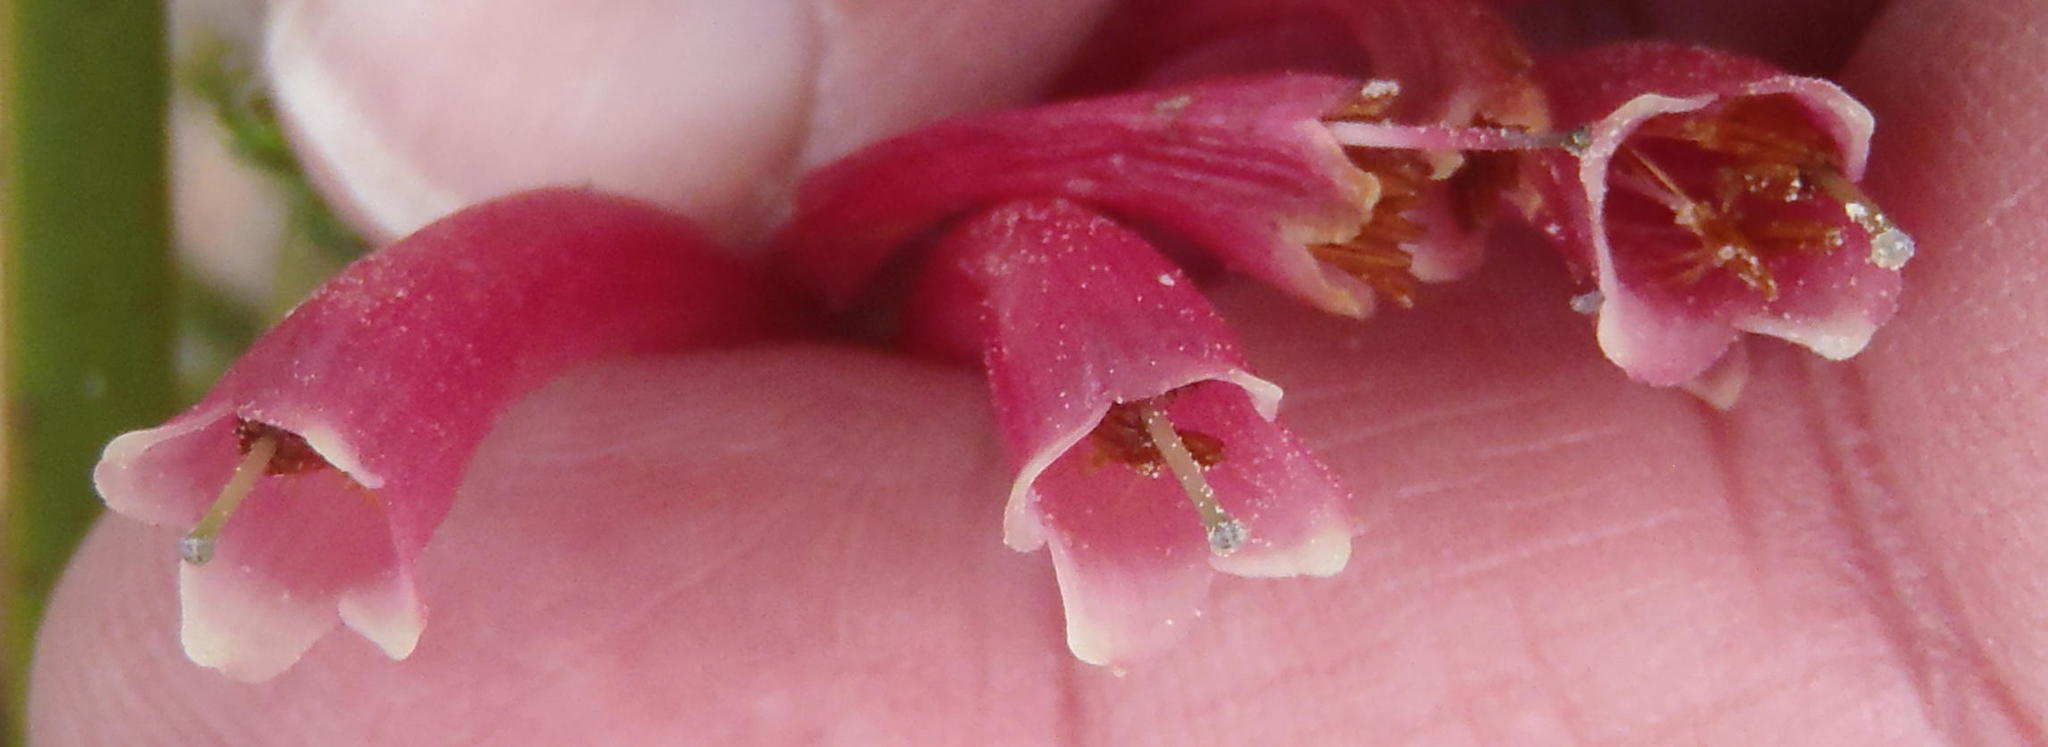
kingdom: Plantae
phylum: Tracheophyta
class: Magnoliopsida
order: Ericales
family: Ericaceae
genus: Erica
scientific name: Erica discolor
